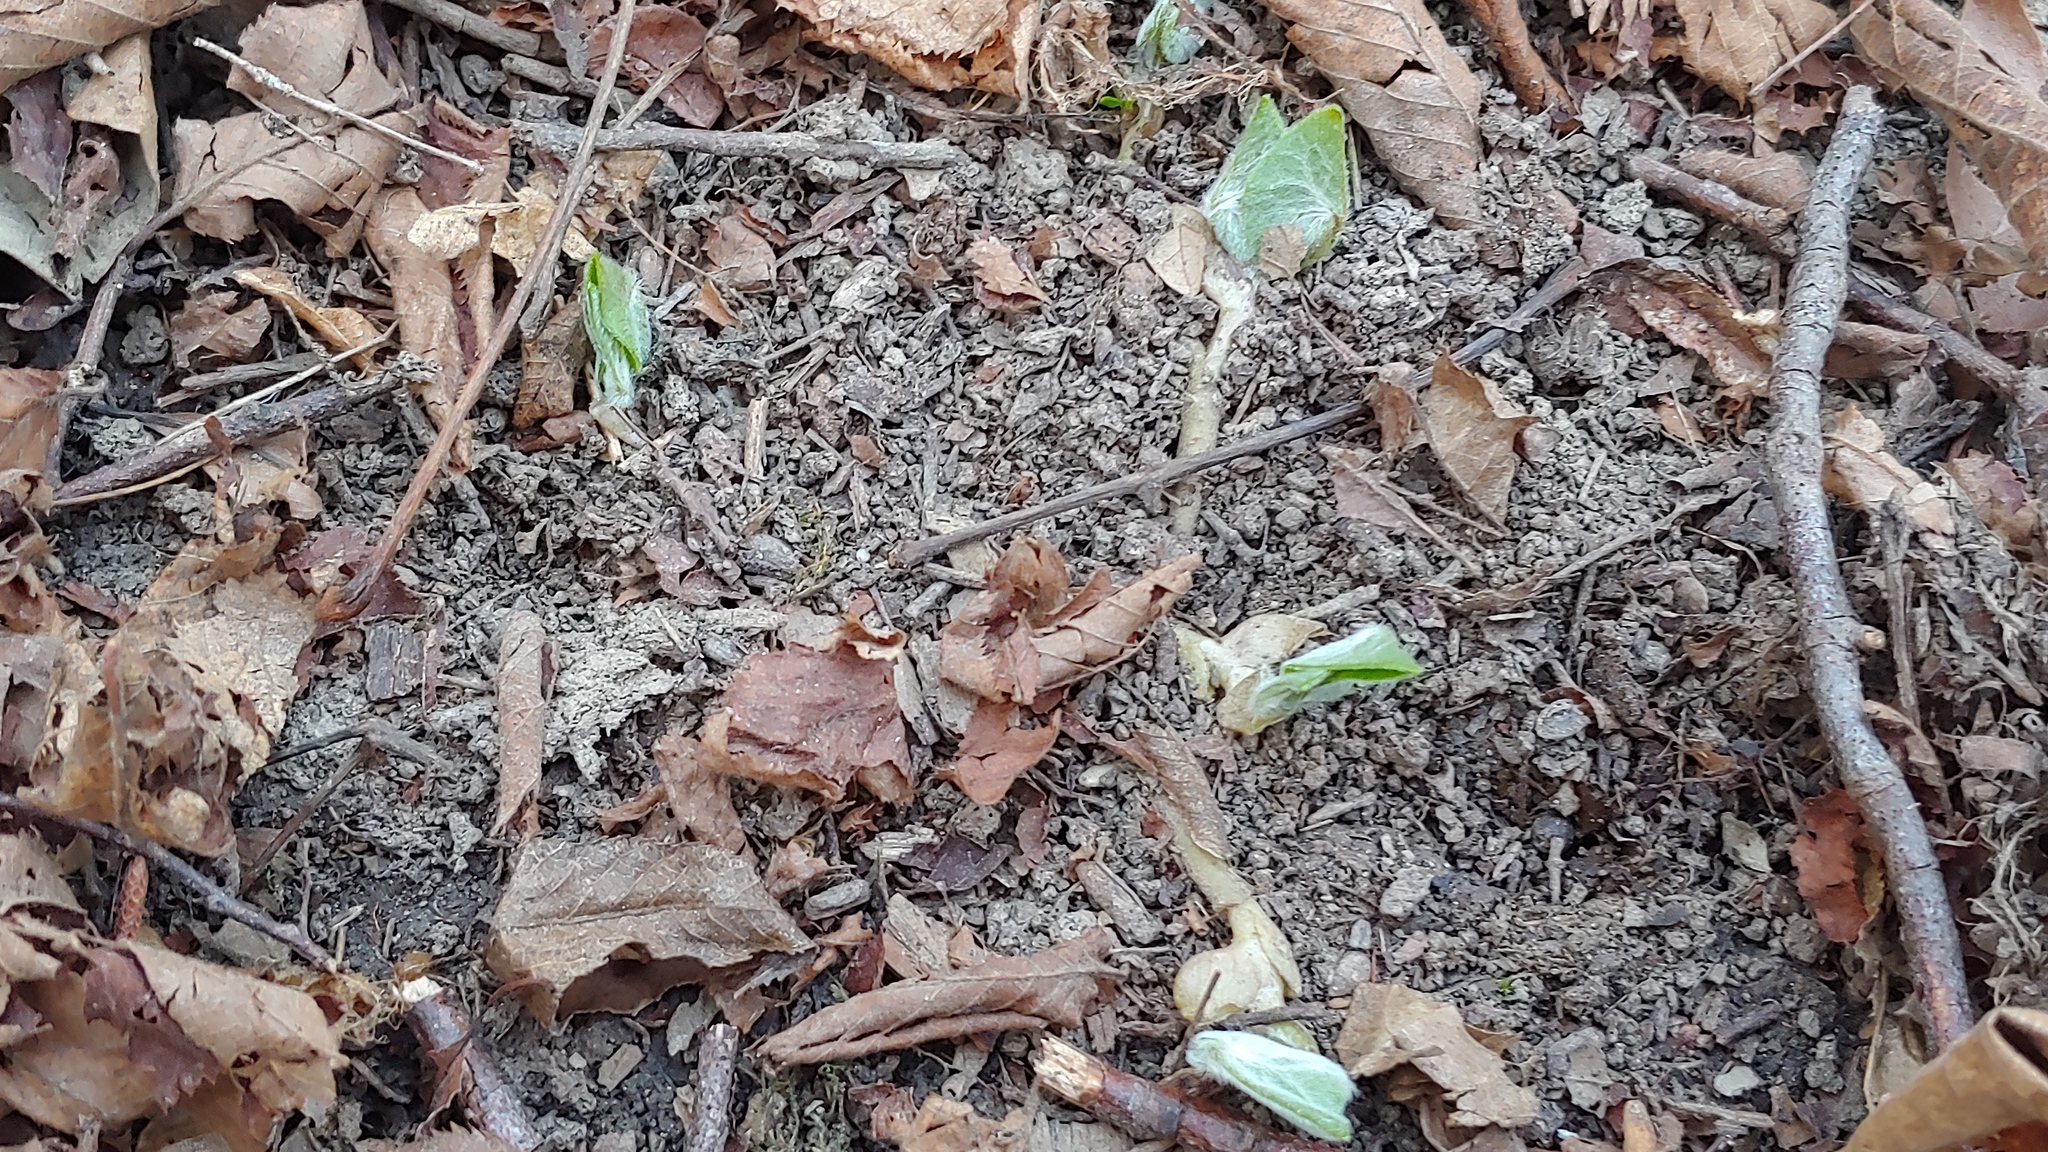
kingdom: Plantae
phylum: Tracheophyta
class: Magnoliopsida
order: Piperales
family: Aristolochiaceae
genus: Asarum
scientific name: Asarum canadense
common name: Wild ginger
